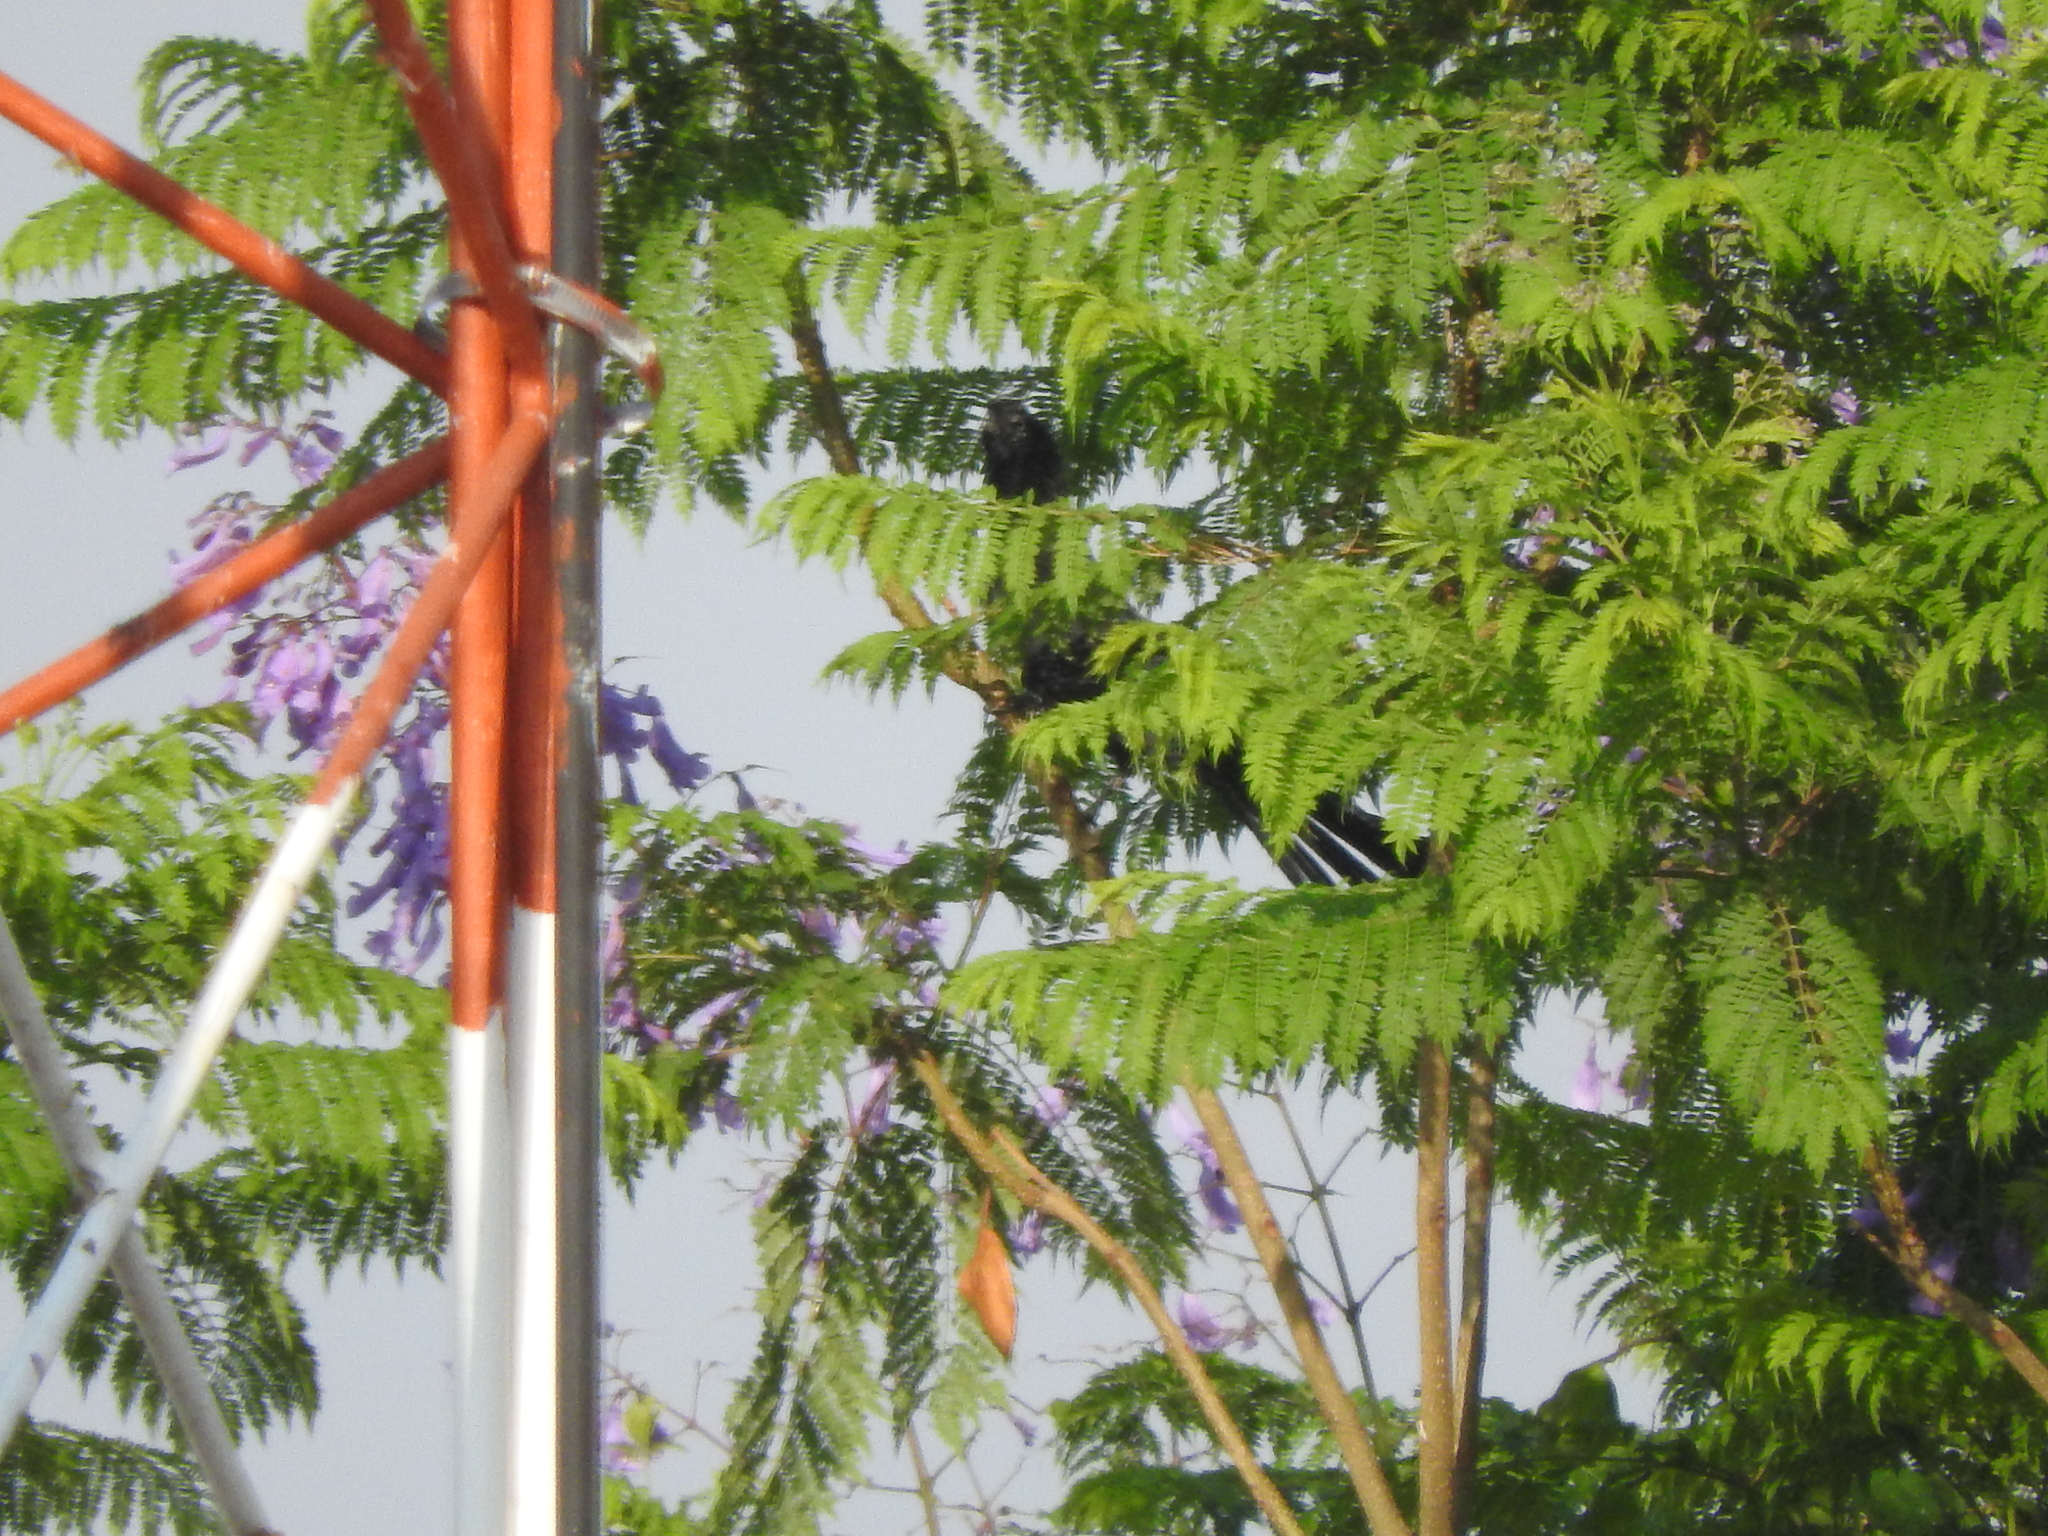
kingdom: Animalia
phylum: Chordata
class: Aves
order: Cuculiformes
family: Cuculidae
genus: Crotophaga
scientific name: Crotophaga sulcirostris
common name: Groove-billed ani
